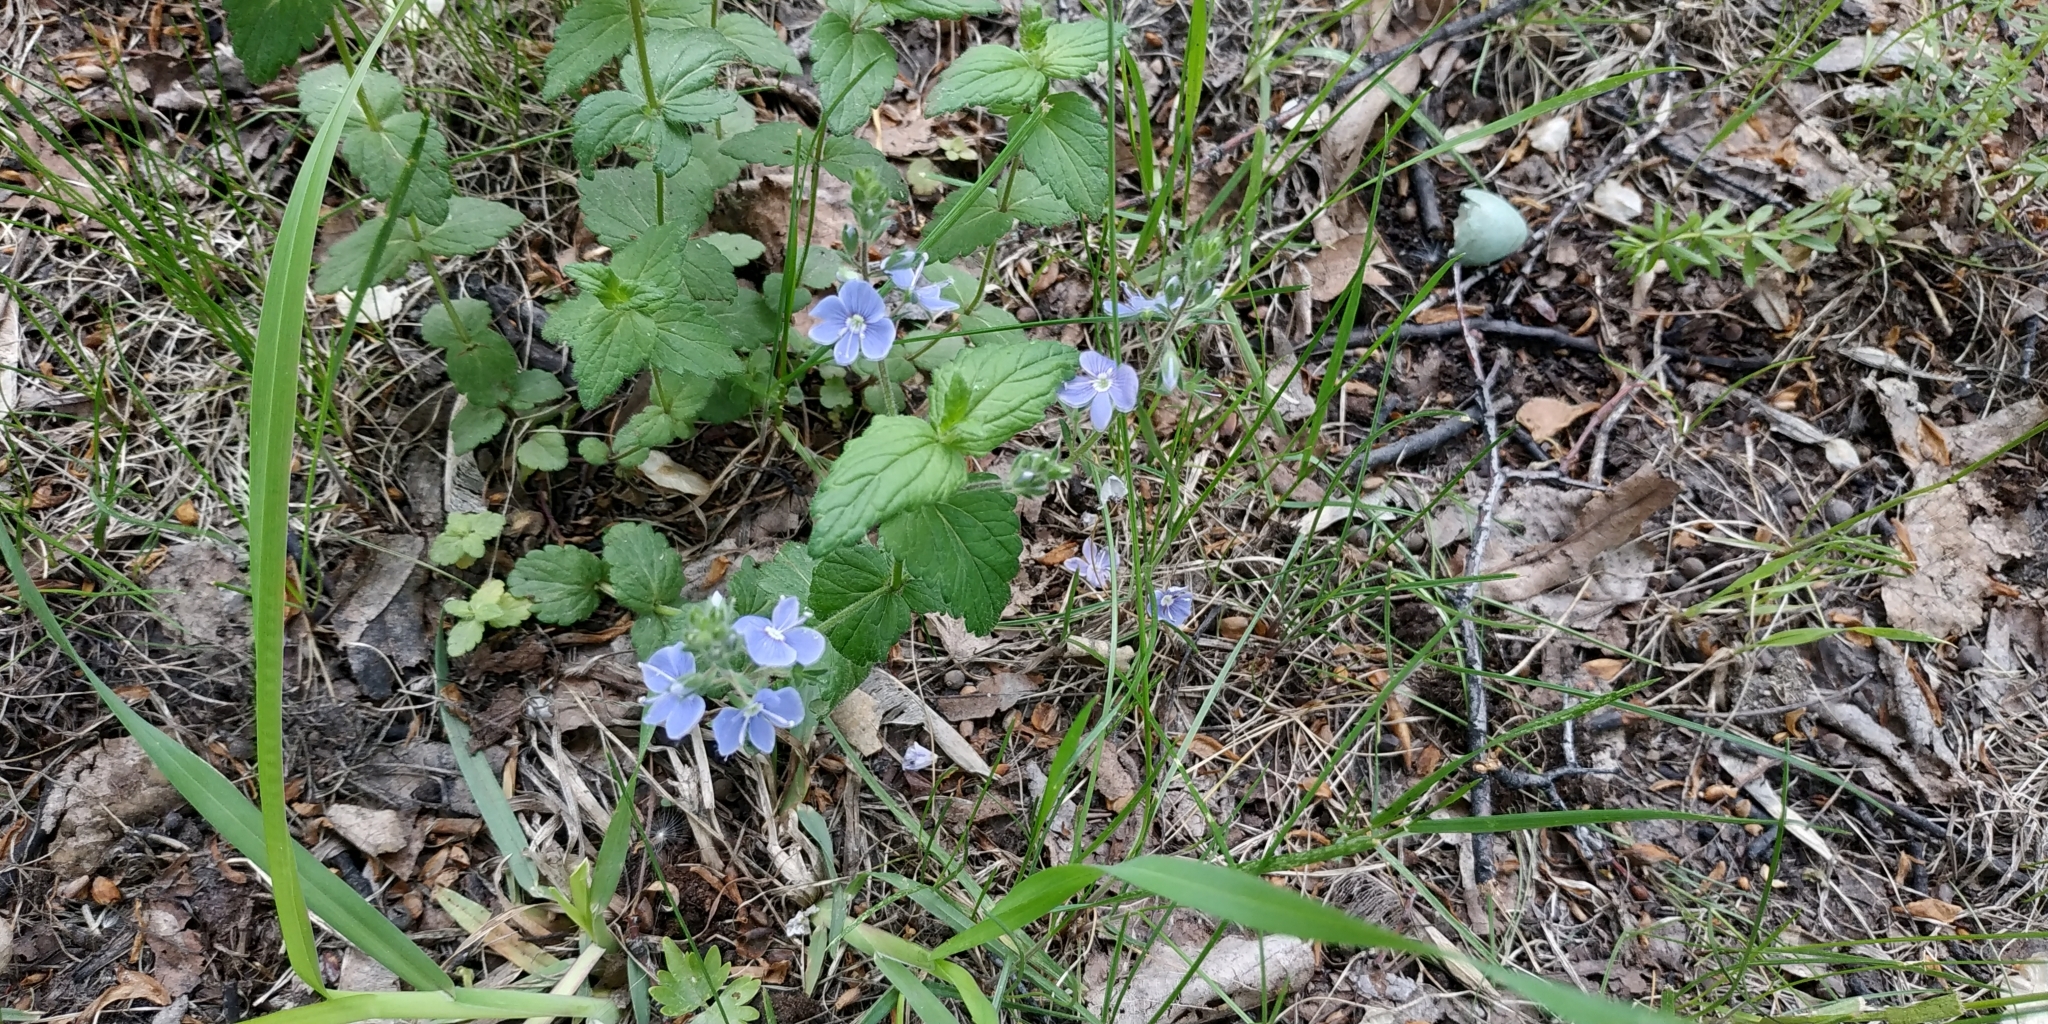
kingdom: Plantae
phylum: Tracheophyta
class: Magnoliopsida
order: Lamiales
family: Plantaginaceae
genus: Veronica
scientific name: Veronica chamaedrys
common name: Germander speedwell
